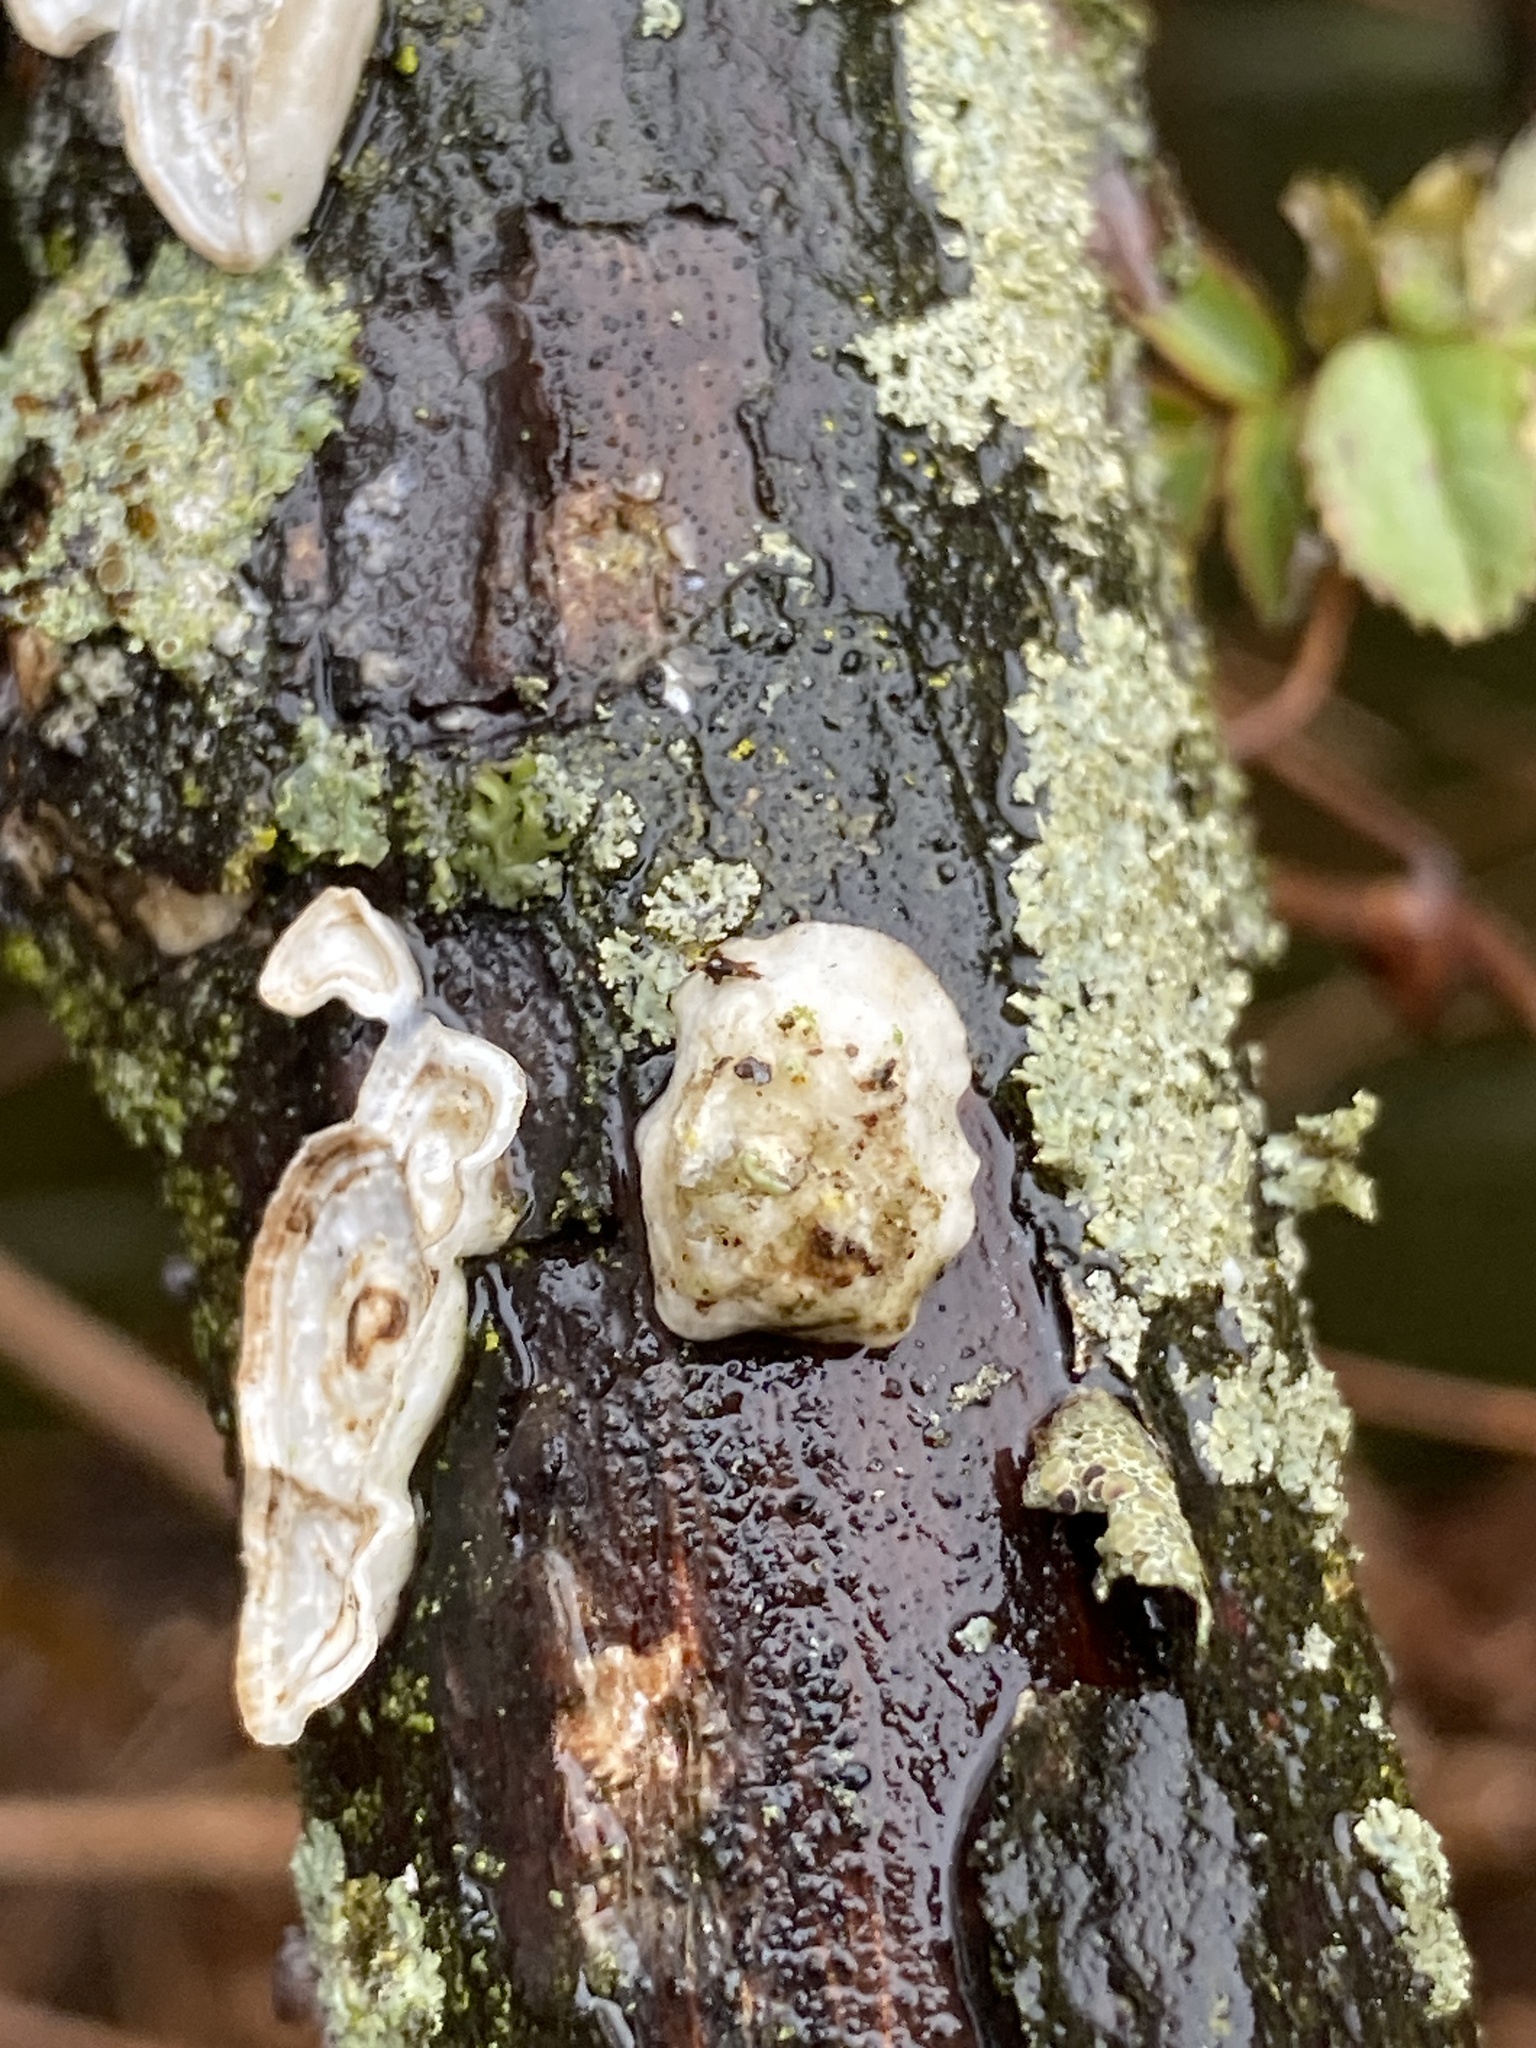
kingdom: Fungi
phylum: Basidiomycota
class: Agaricomycetes
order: Polyporales
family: Polyporaceae
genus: Poronidulus
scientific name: Poronidulus conchifer
